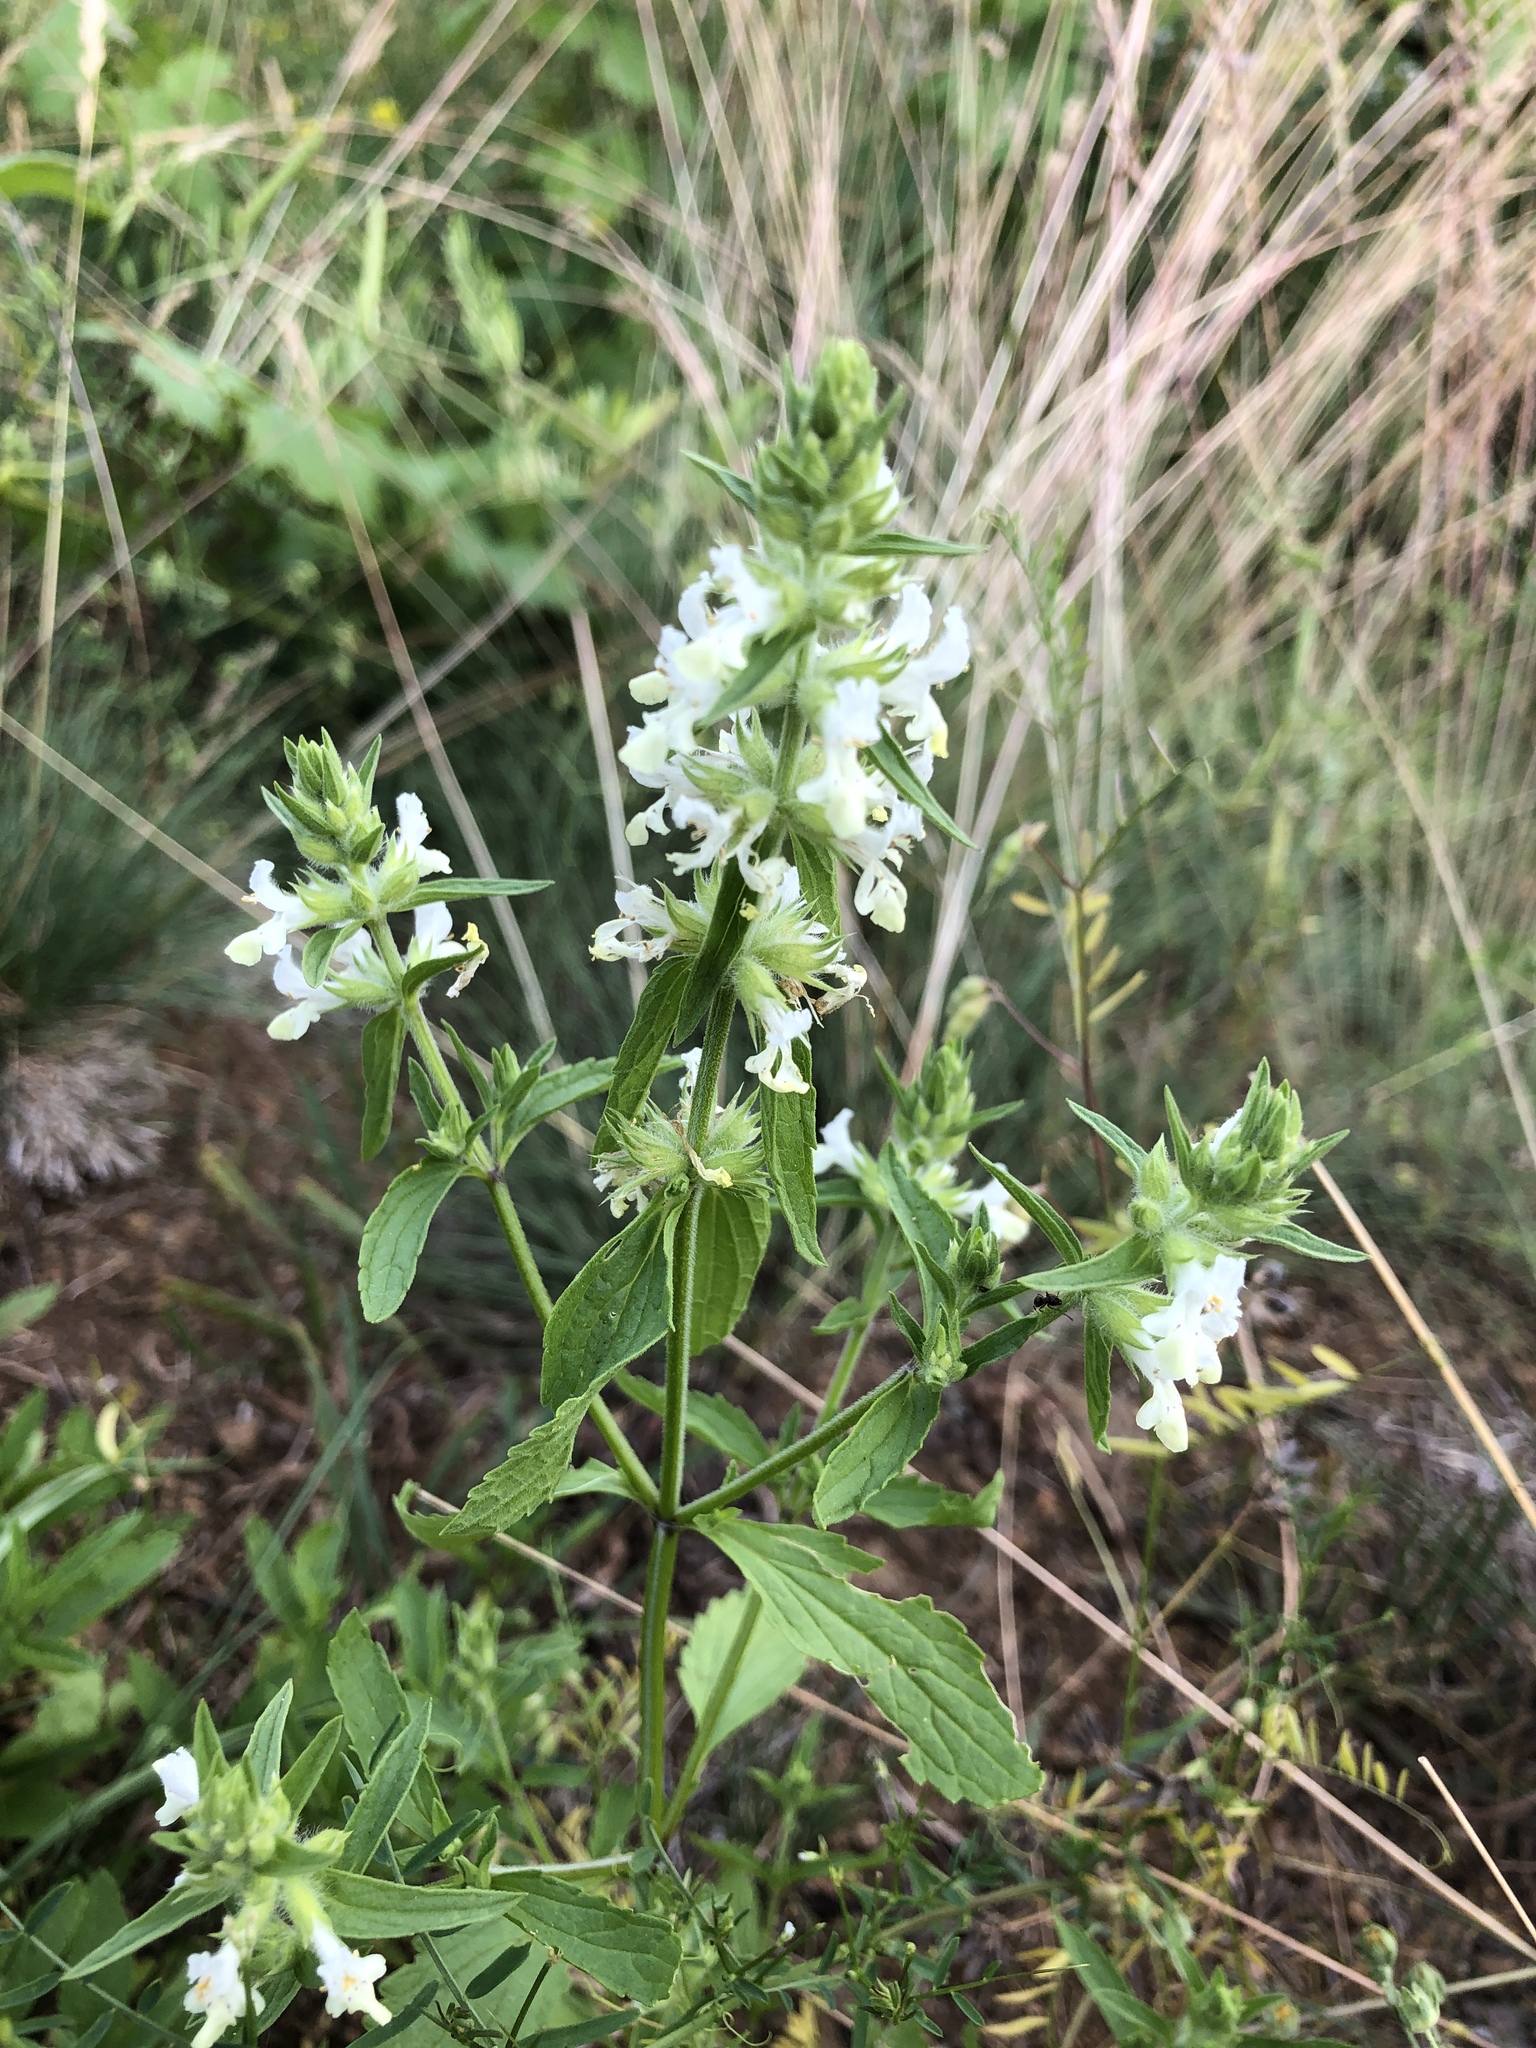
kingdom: Plantae
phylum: Tracheophyta
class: Magnoliopsida
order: Lamiales
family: Lamiaceae
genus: Stachys
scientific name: Stachys annua
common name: Annual yellow-woundwort
